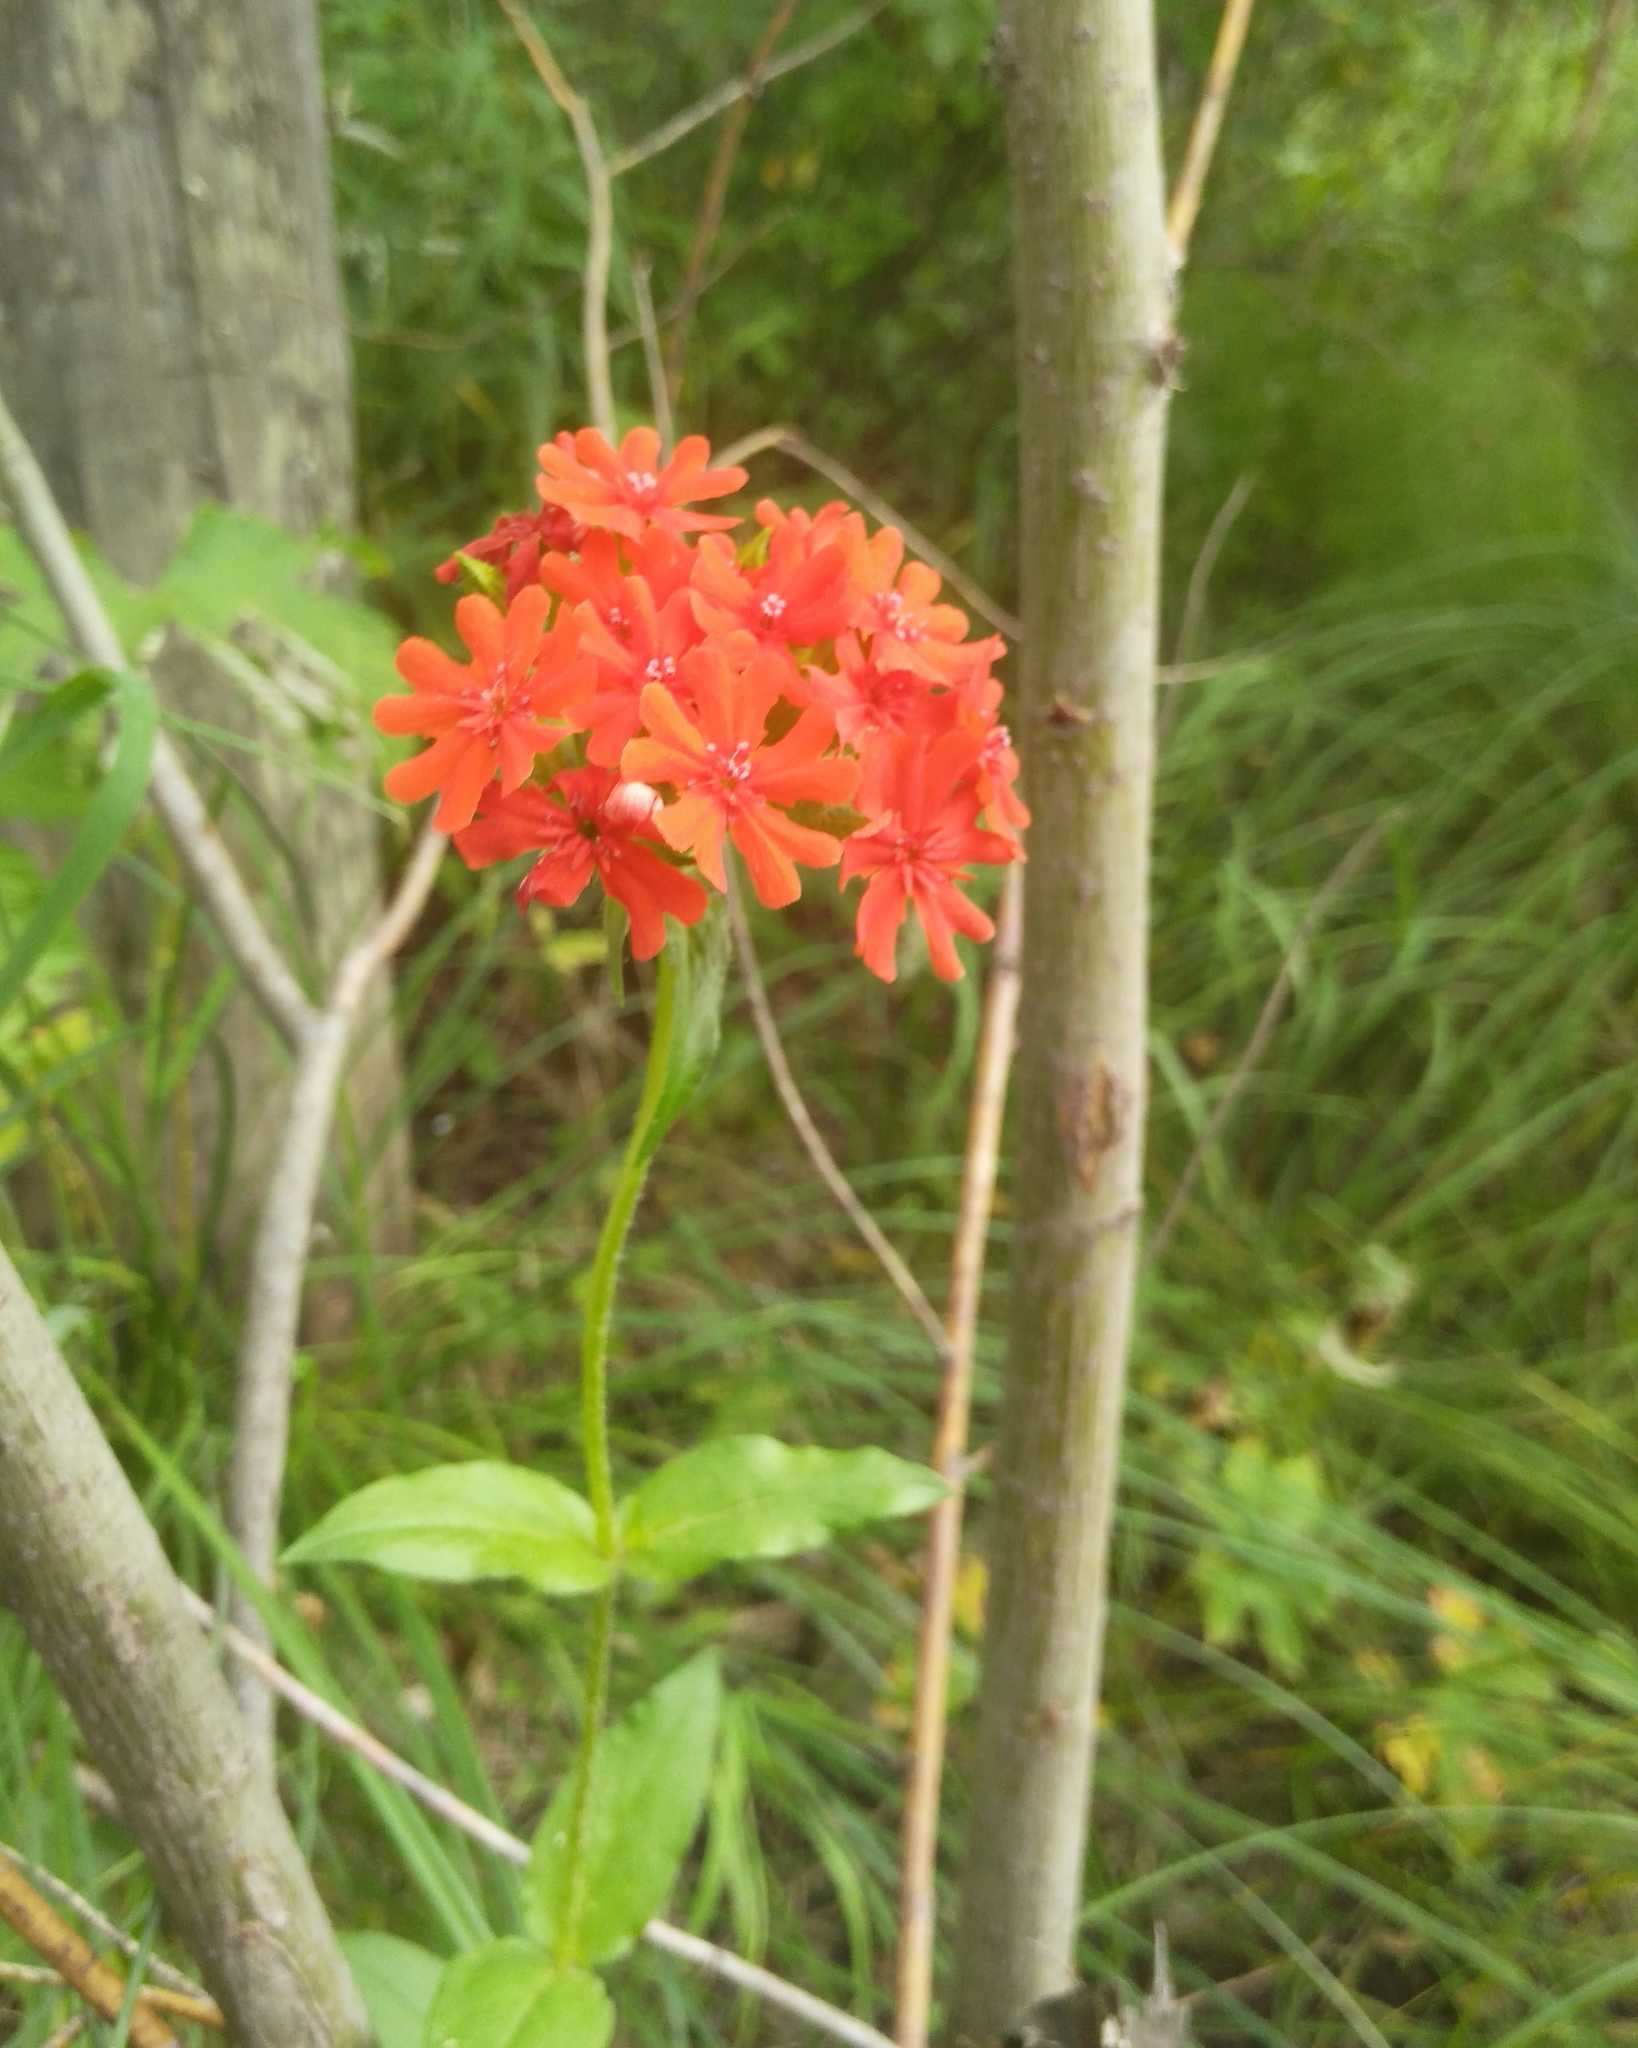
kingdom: Plantae
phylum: Tracheophyta
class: Magnoliopsida
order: Caryophyllales
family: Caryophyllaceae
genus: Silene
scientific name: Silene chalcedonica
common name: Maltese-cross
